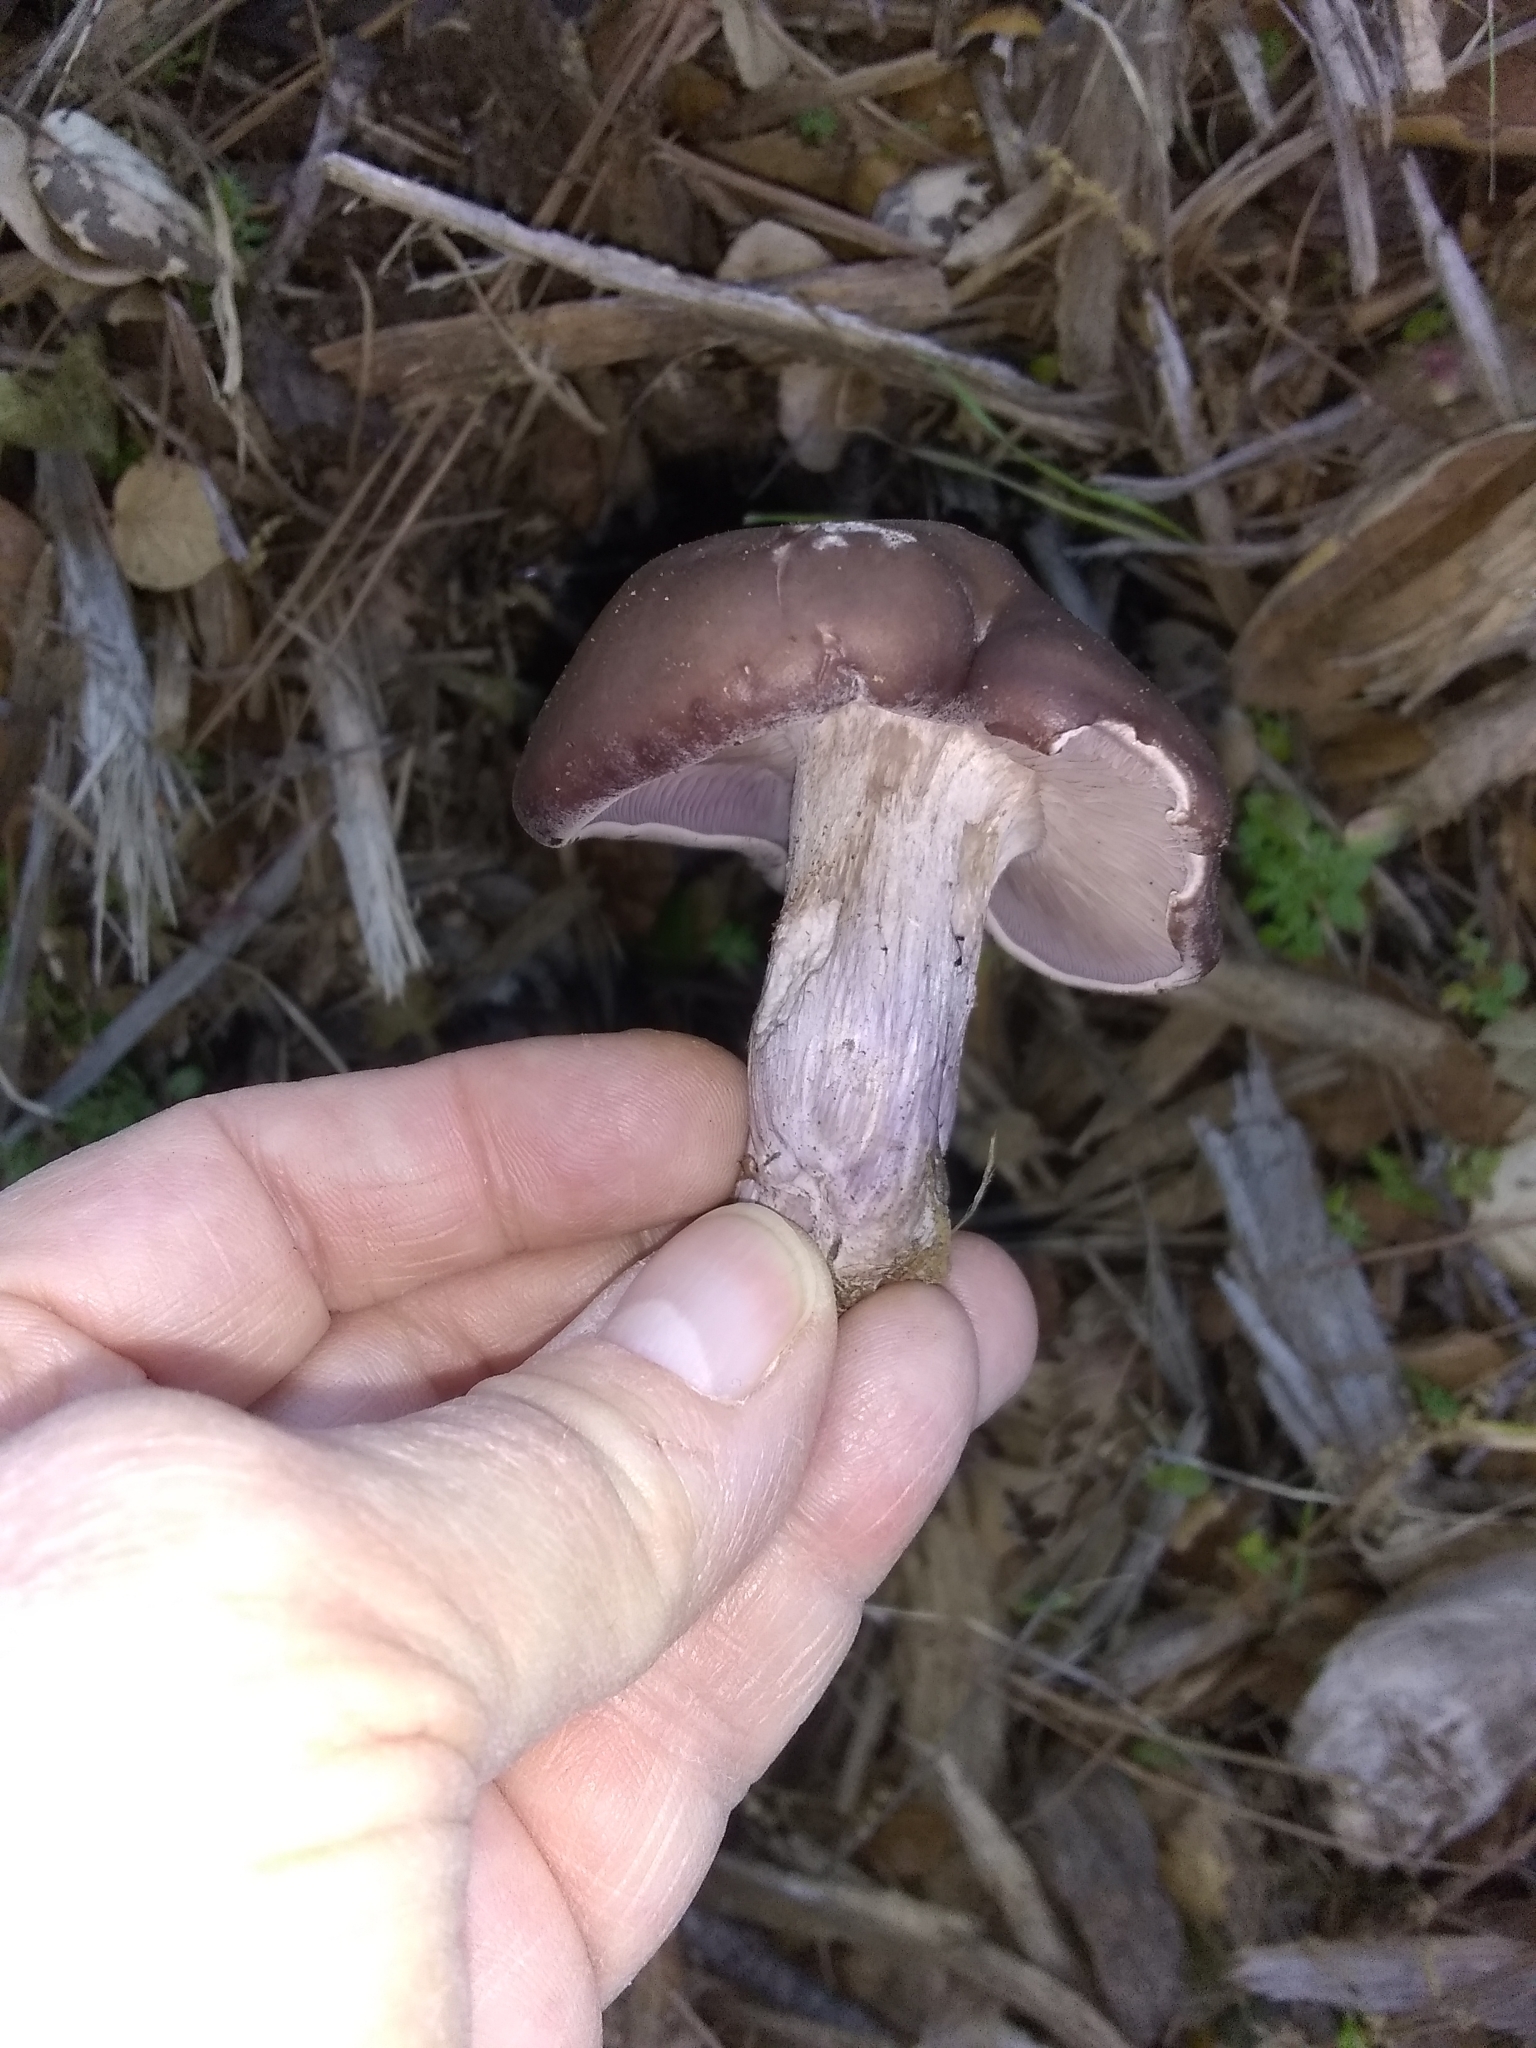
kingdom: Fungi
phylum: Basidiomycota
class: Agaricomycetes
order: Agaricales
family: Tricholomataceae
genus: Collybia
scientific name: Collybia
